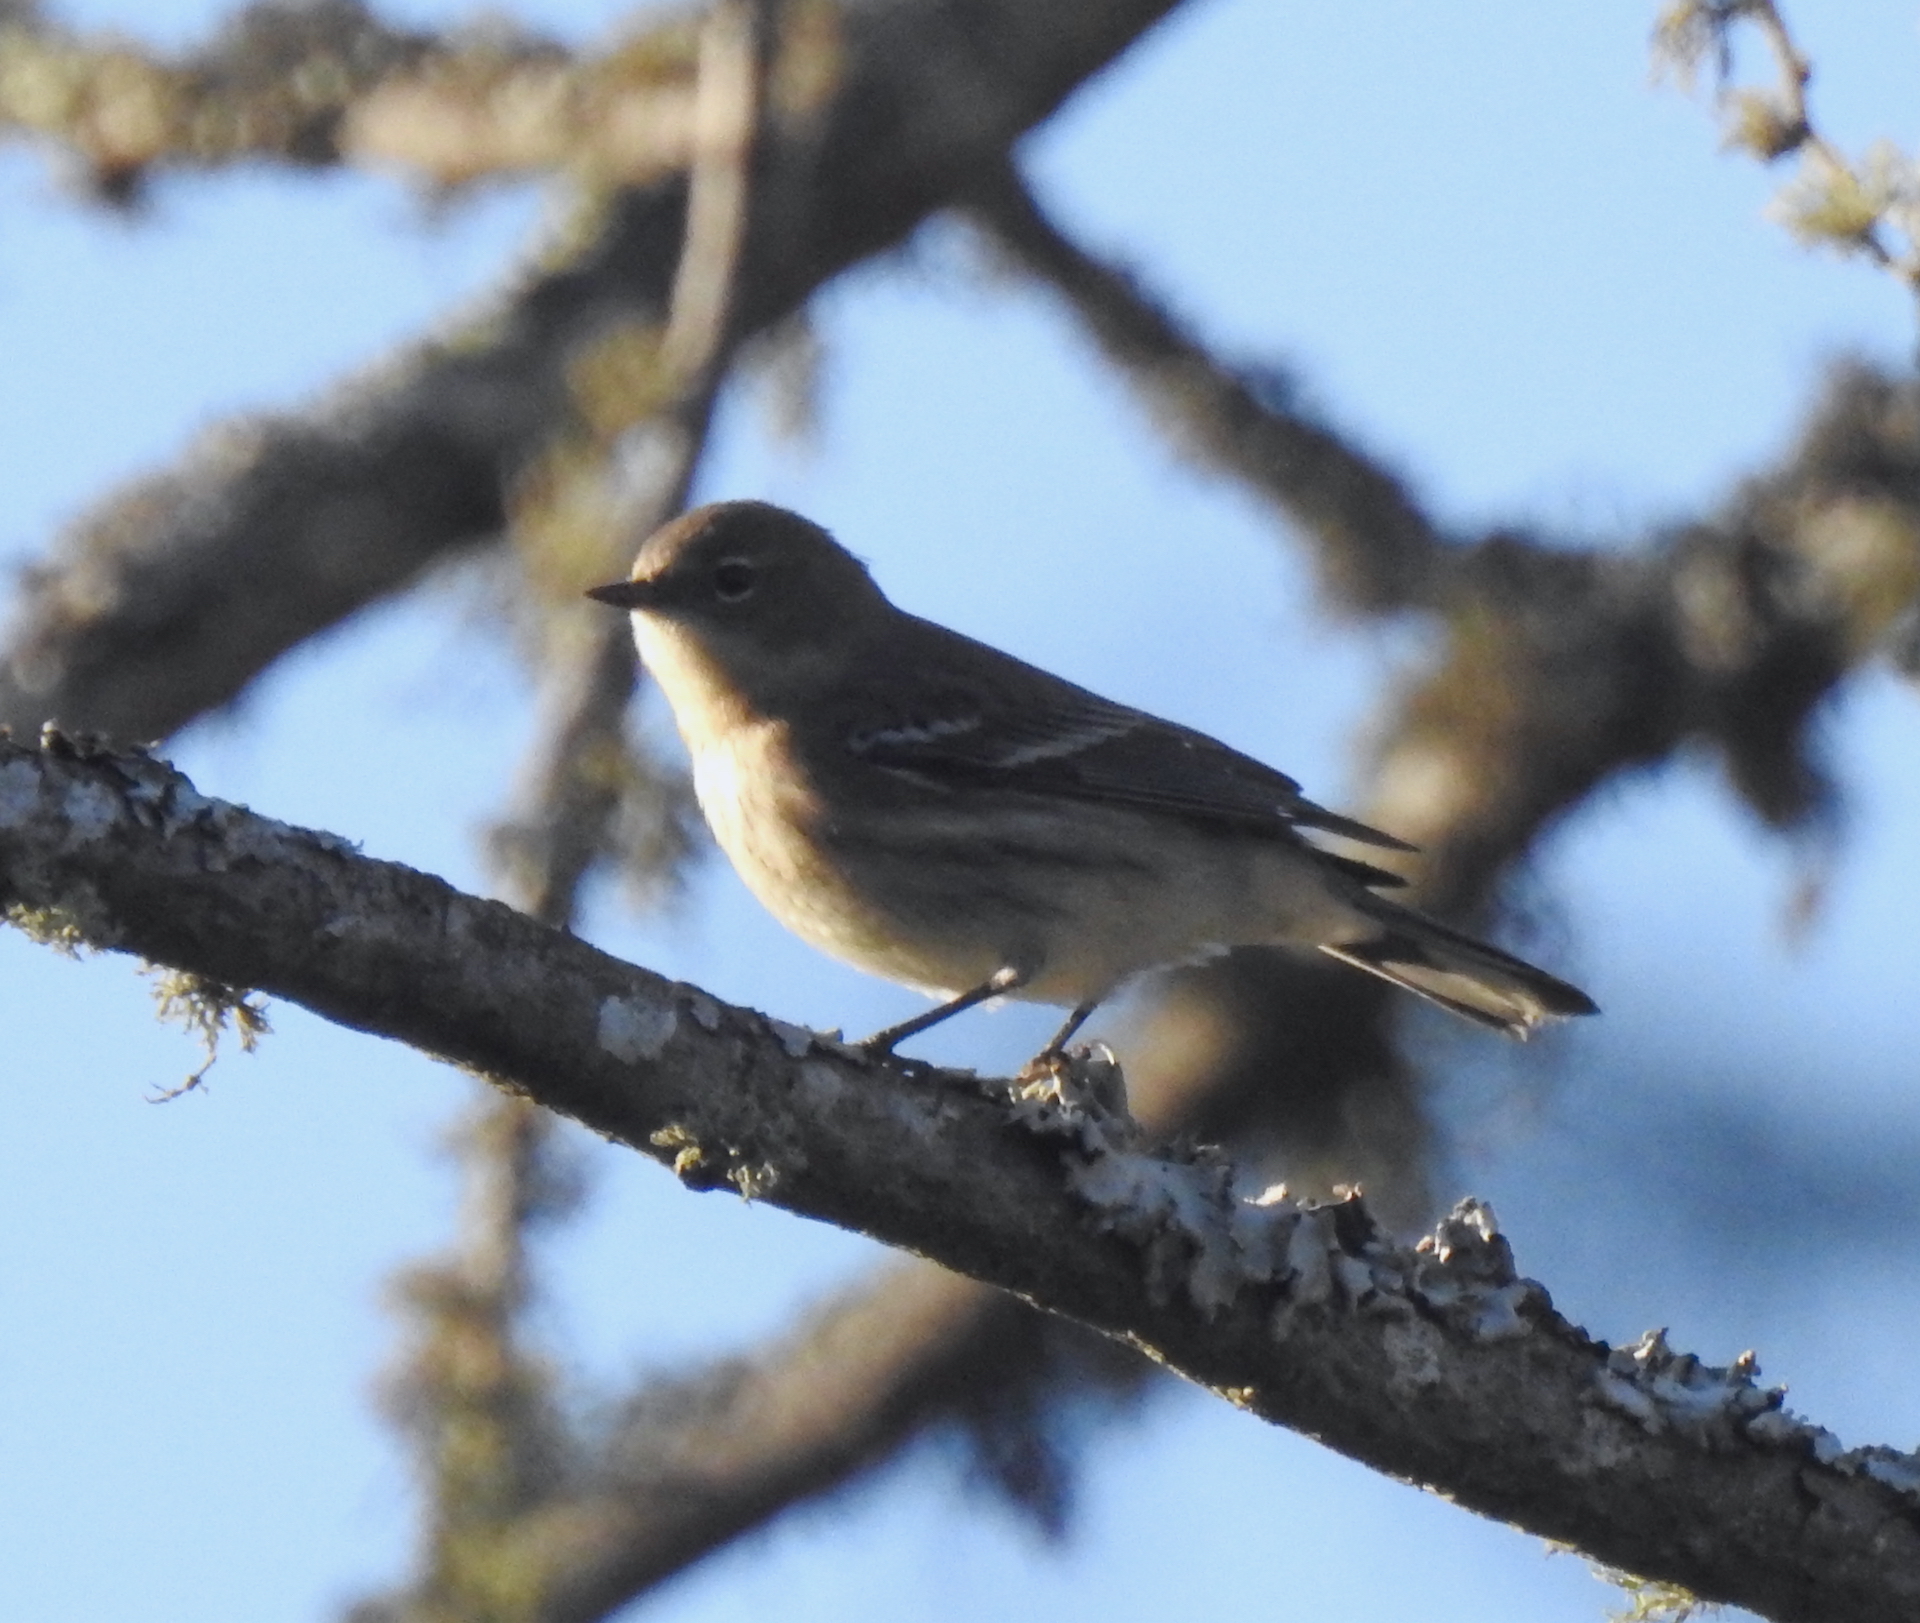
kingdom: Animalia
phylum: Chordata
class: Aves
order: Passeriformes
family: Parulidae
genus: Setophaga
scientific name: Setophaga coronata
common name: Myrtle warbler
